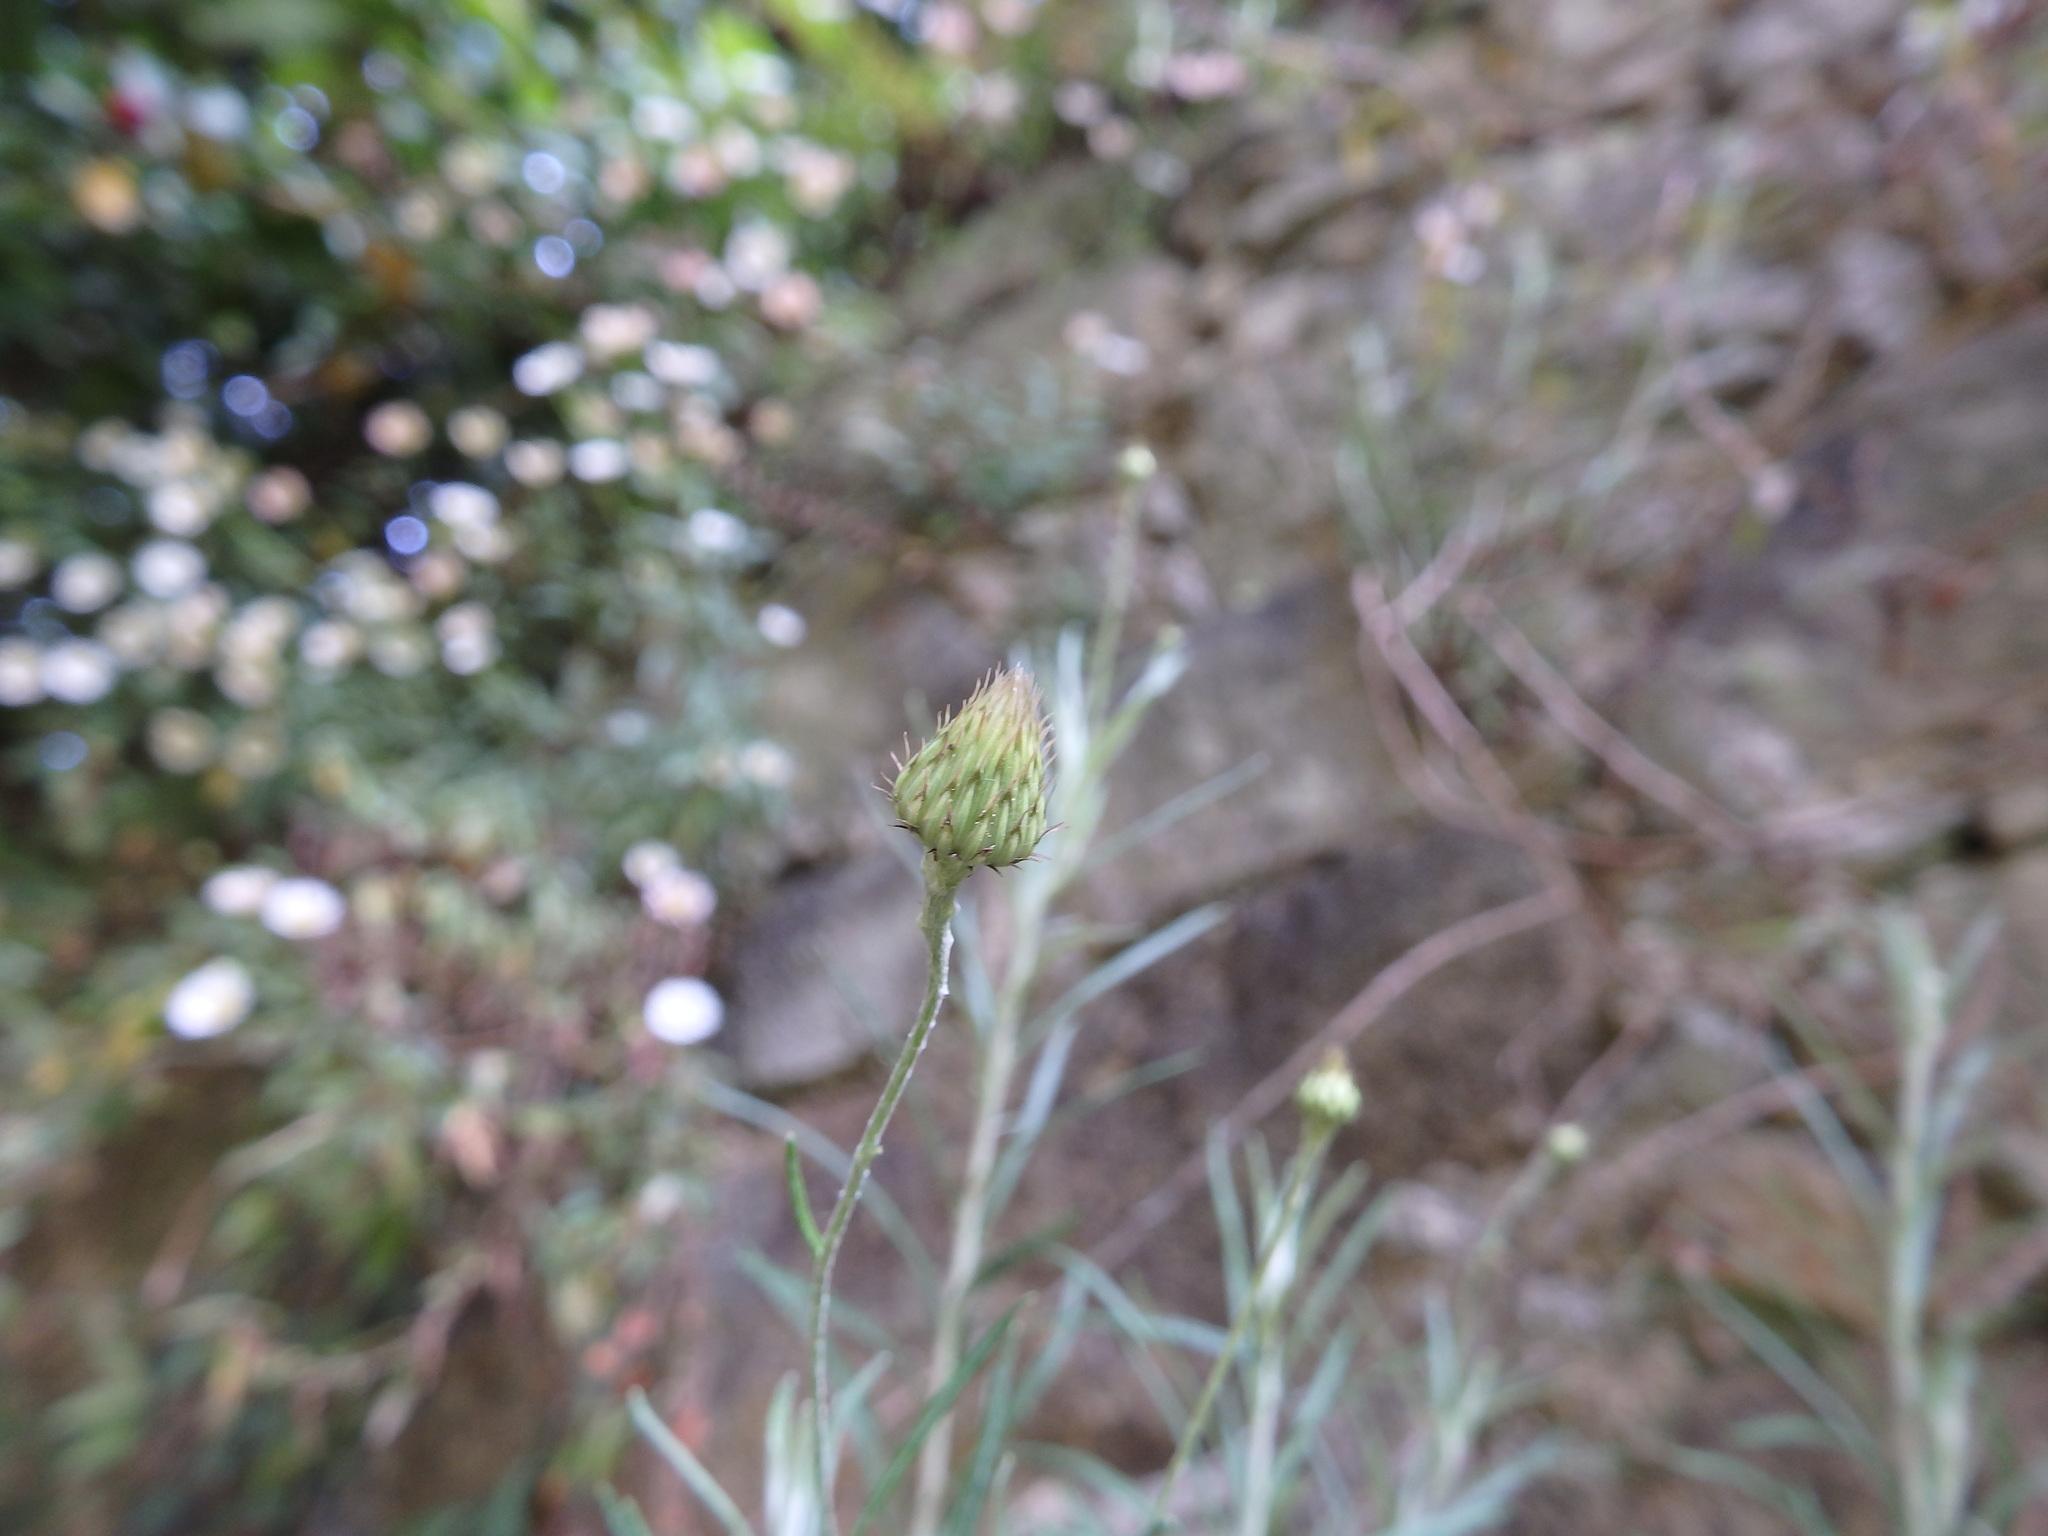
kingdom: Plantae
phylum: Tracheophyta
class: Magnoliopsida
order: Asterales
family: Asteraceae
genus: Phagnalon
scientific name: Phagnalon saxatile
